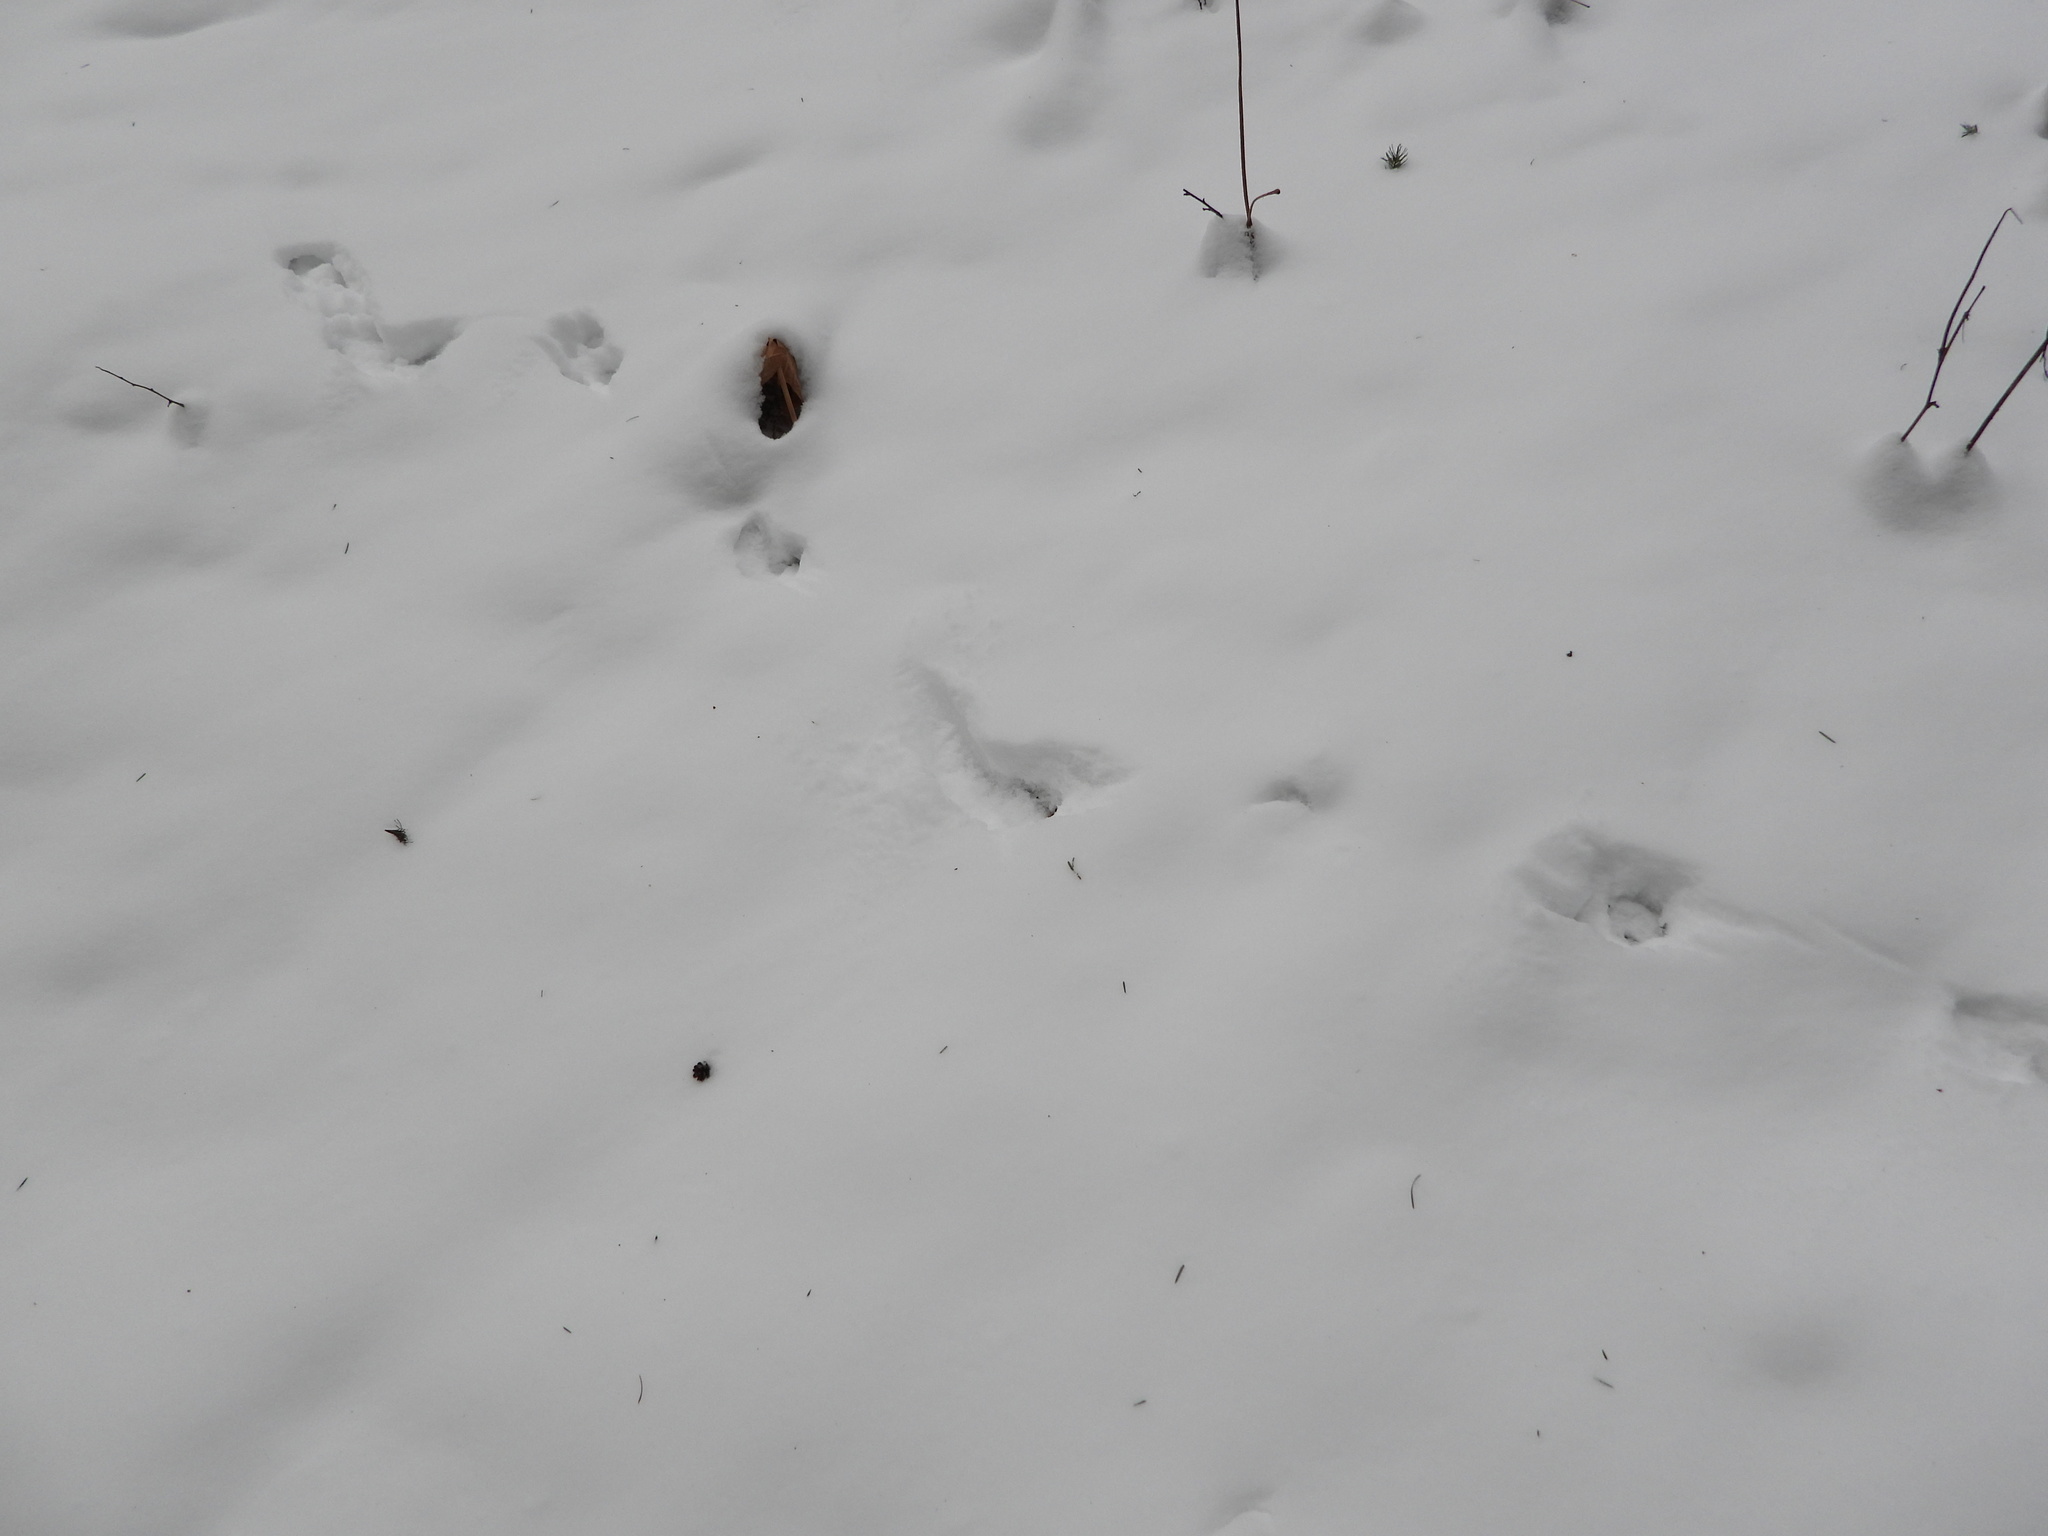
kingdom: Animalia
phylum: Chordata
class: Mammalia
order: Rodentia
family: Sciuridae
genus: Tamiasciurus
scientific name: Tamiasciurus douglasii
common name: Douglas's squirrel
